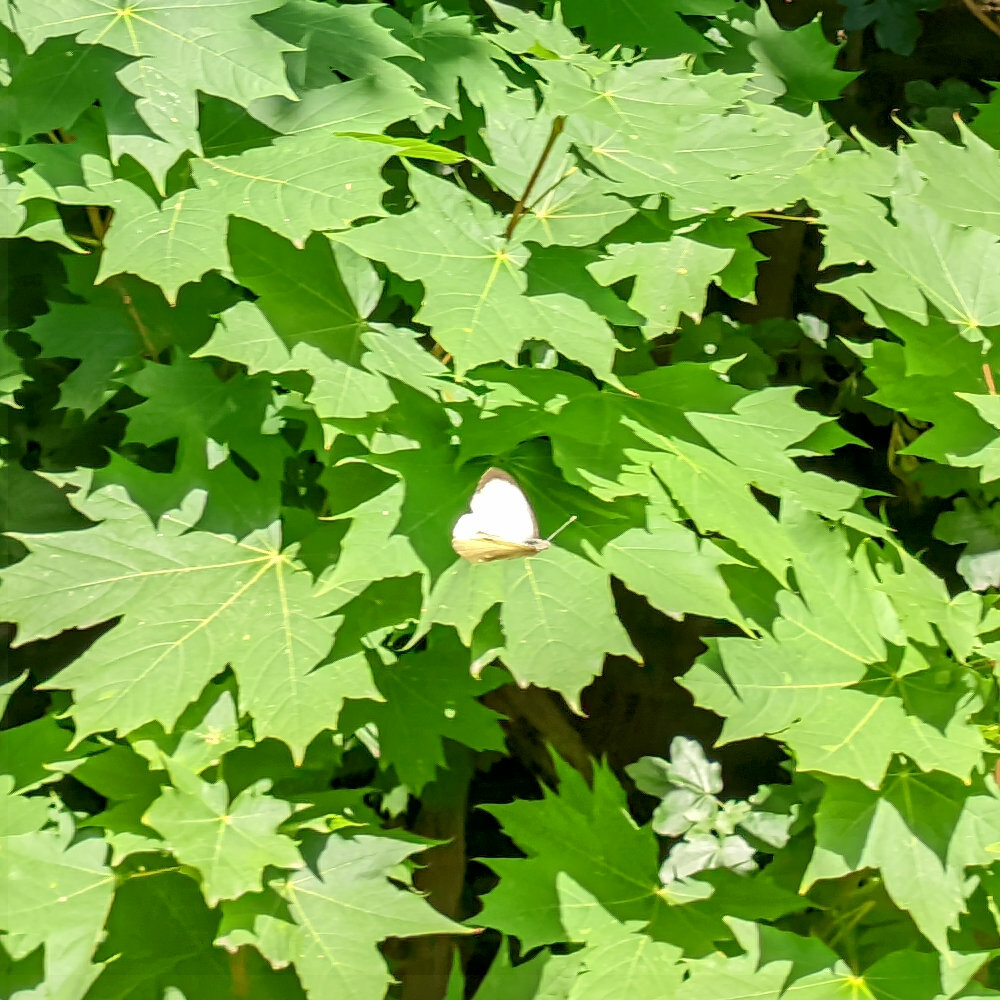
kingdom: Animalia
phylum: Arthropoda
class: Insecta
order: Lepidoptera
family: Pieridae
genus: Pieris
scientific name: Pieris brassicae
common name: Large white
